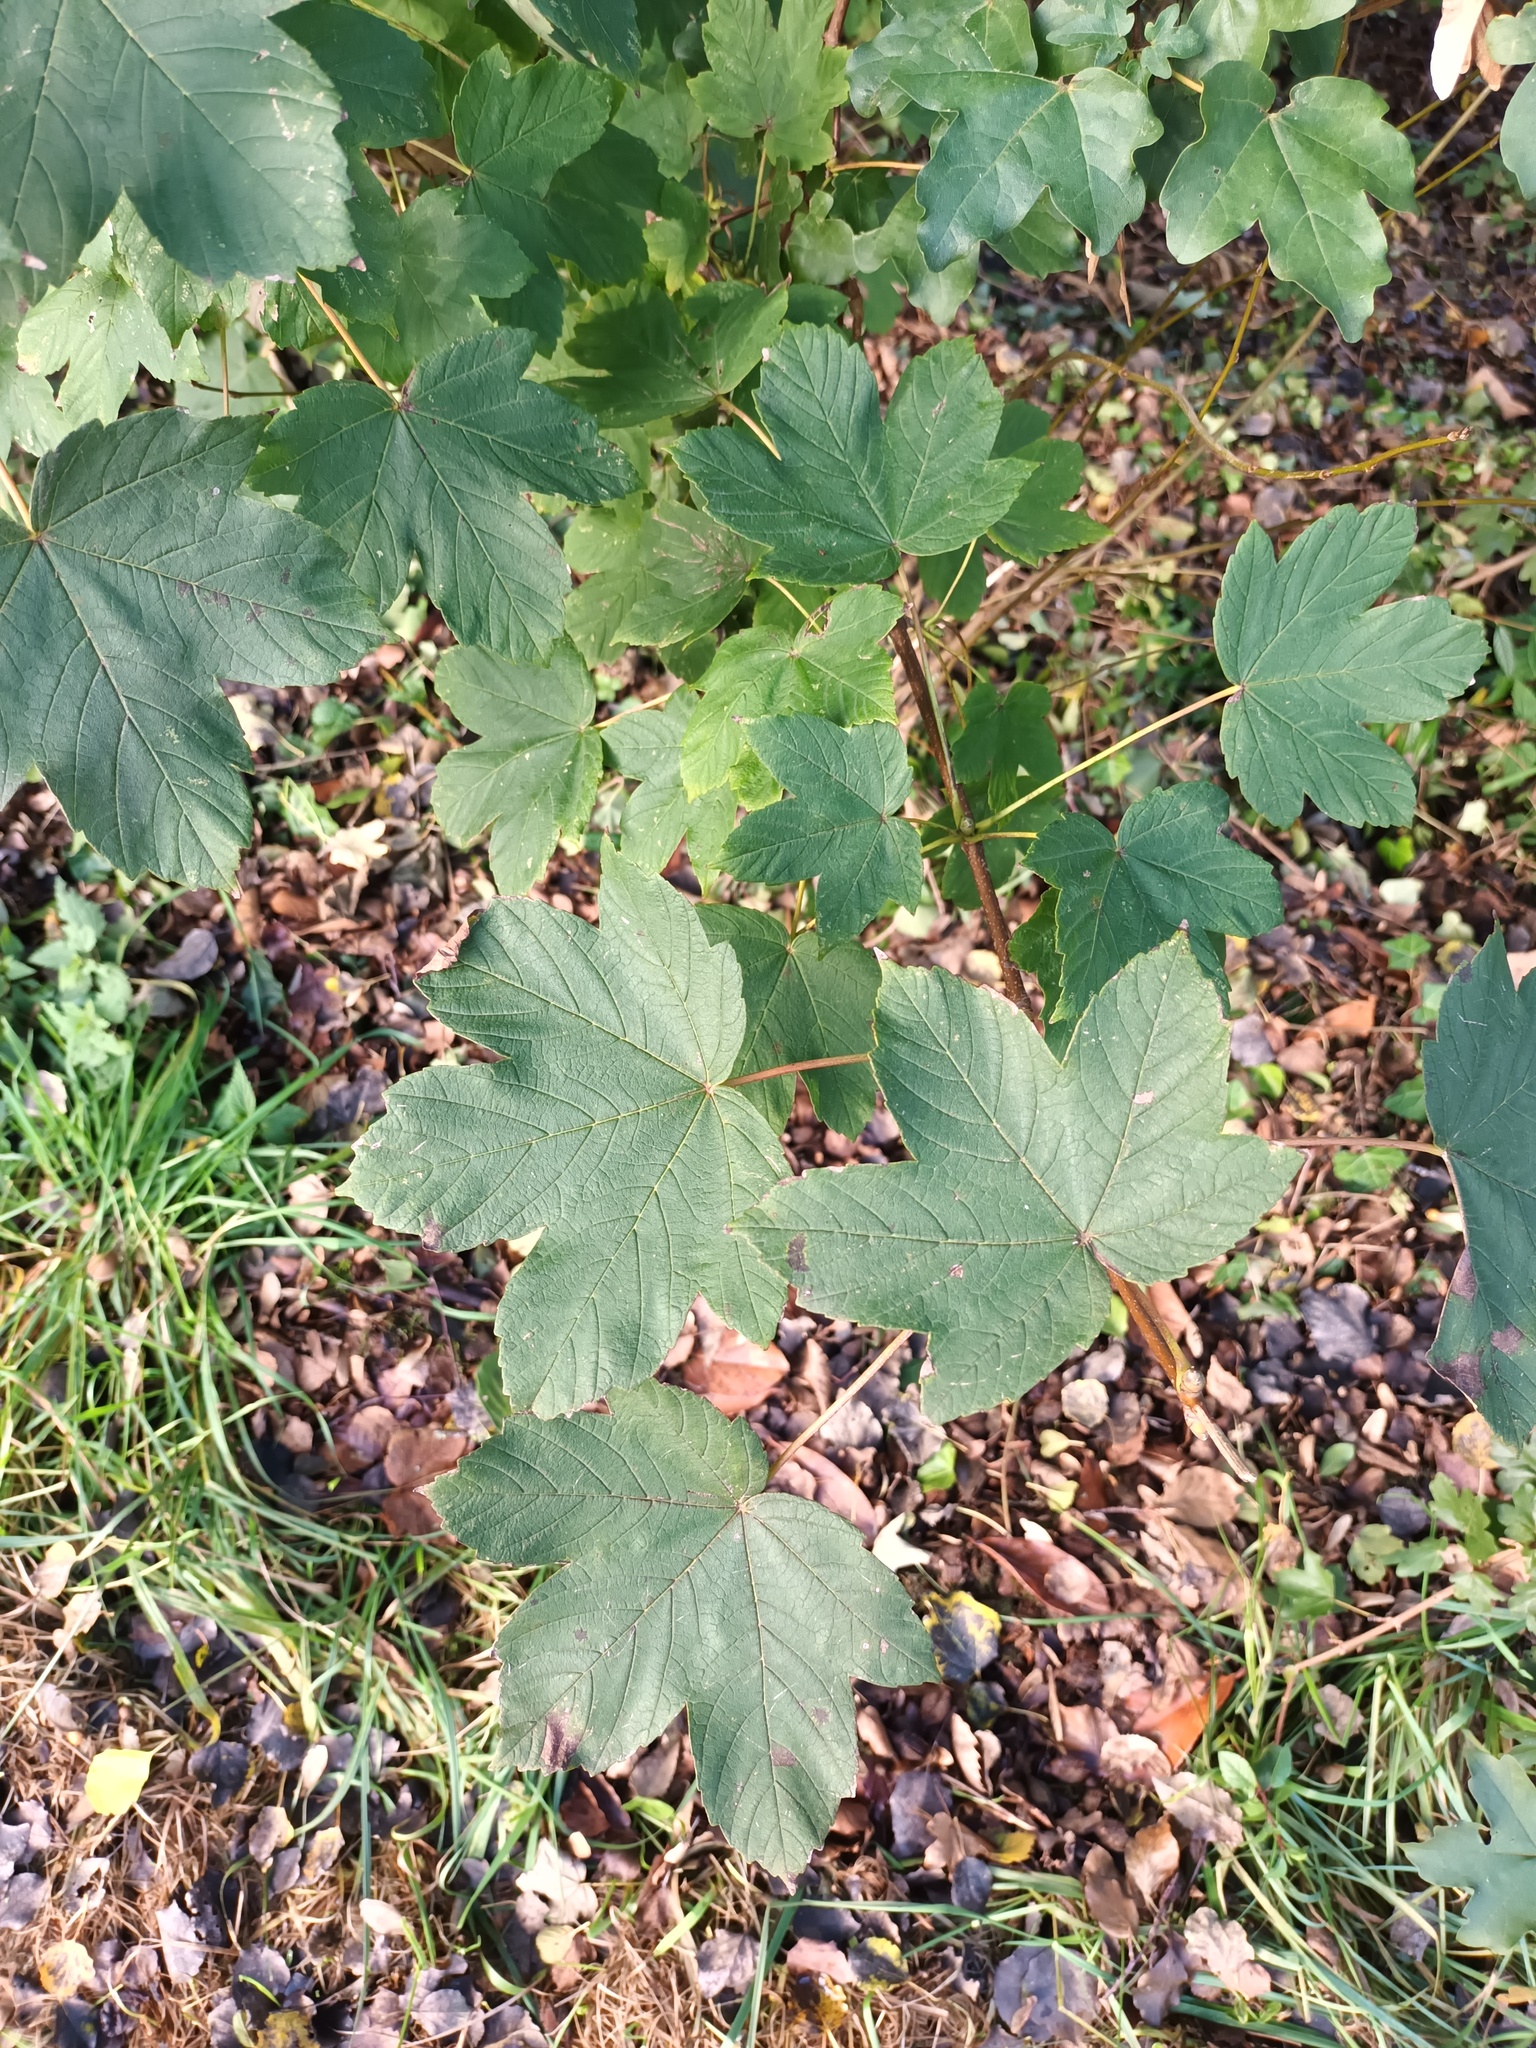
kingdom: Plantae
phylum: Tracheophyta
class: Magnoliopsida
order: Sapindales
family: Sapindaceae
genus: Acer
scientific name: Acer pseudoplatanus
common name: Sycamore
